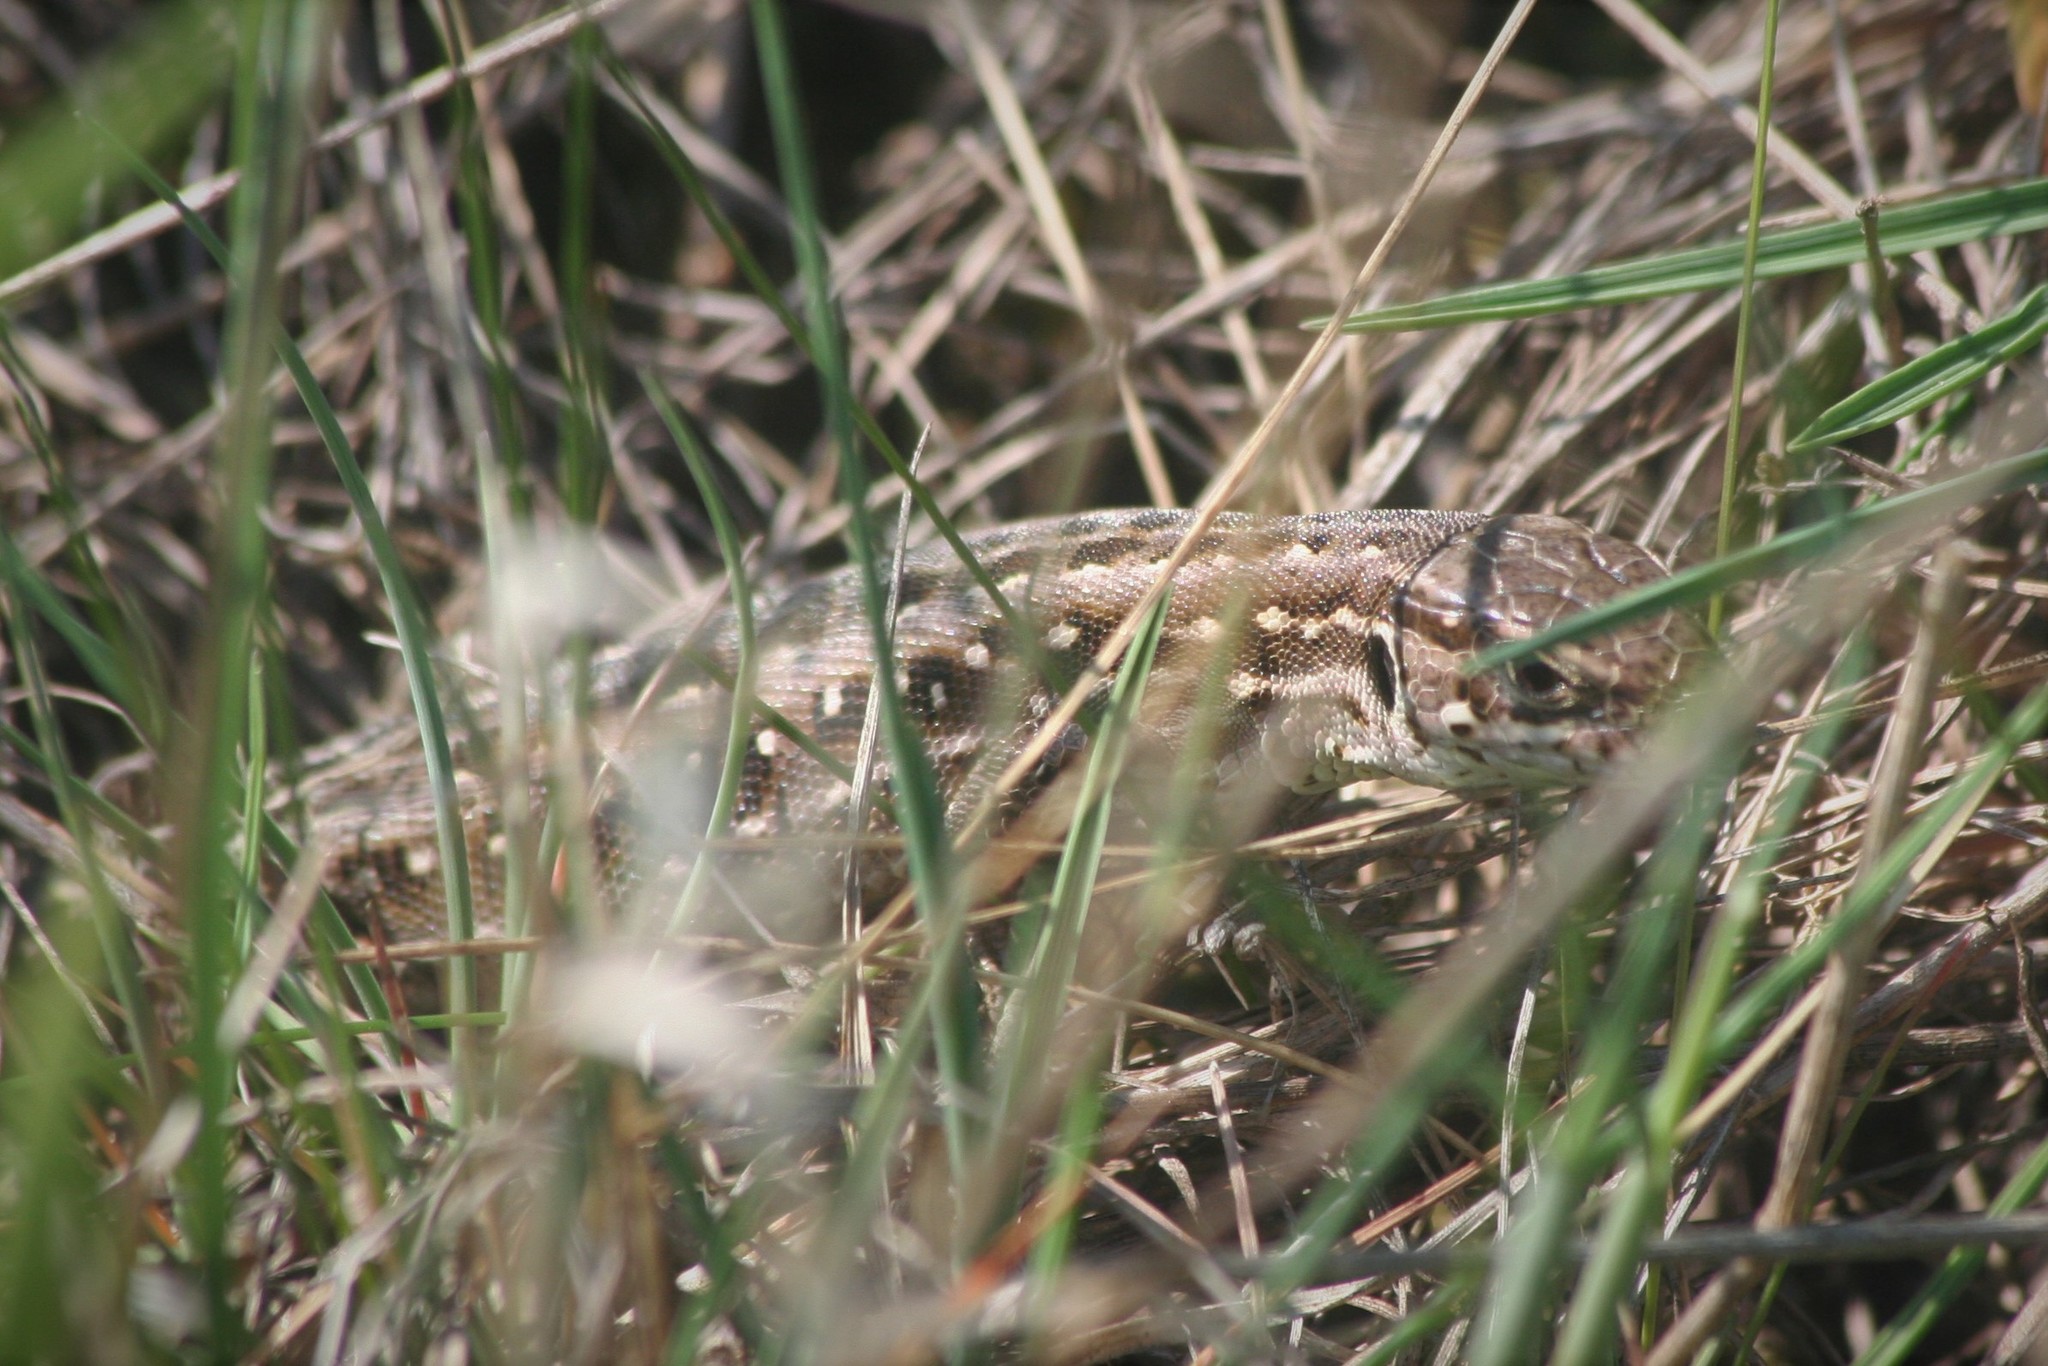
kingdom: Animalia
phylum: Chordata
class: Squamata
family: Lacertidae
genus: Lacerta
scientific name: Lacerta agilis
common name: Sand lizard
